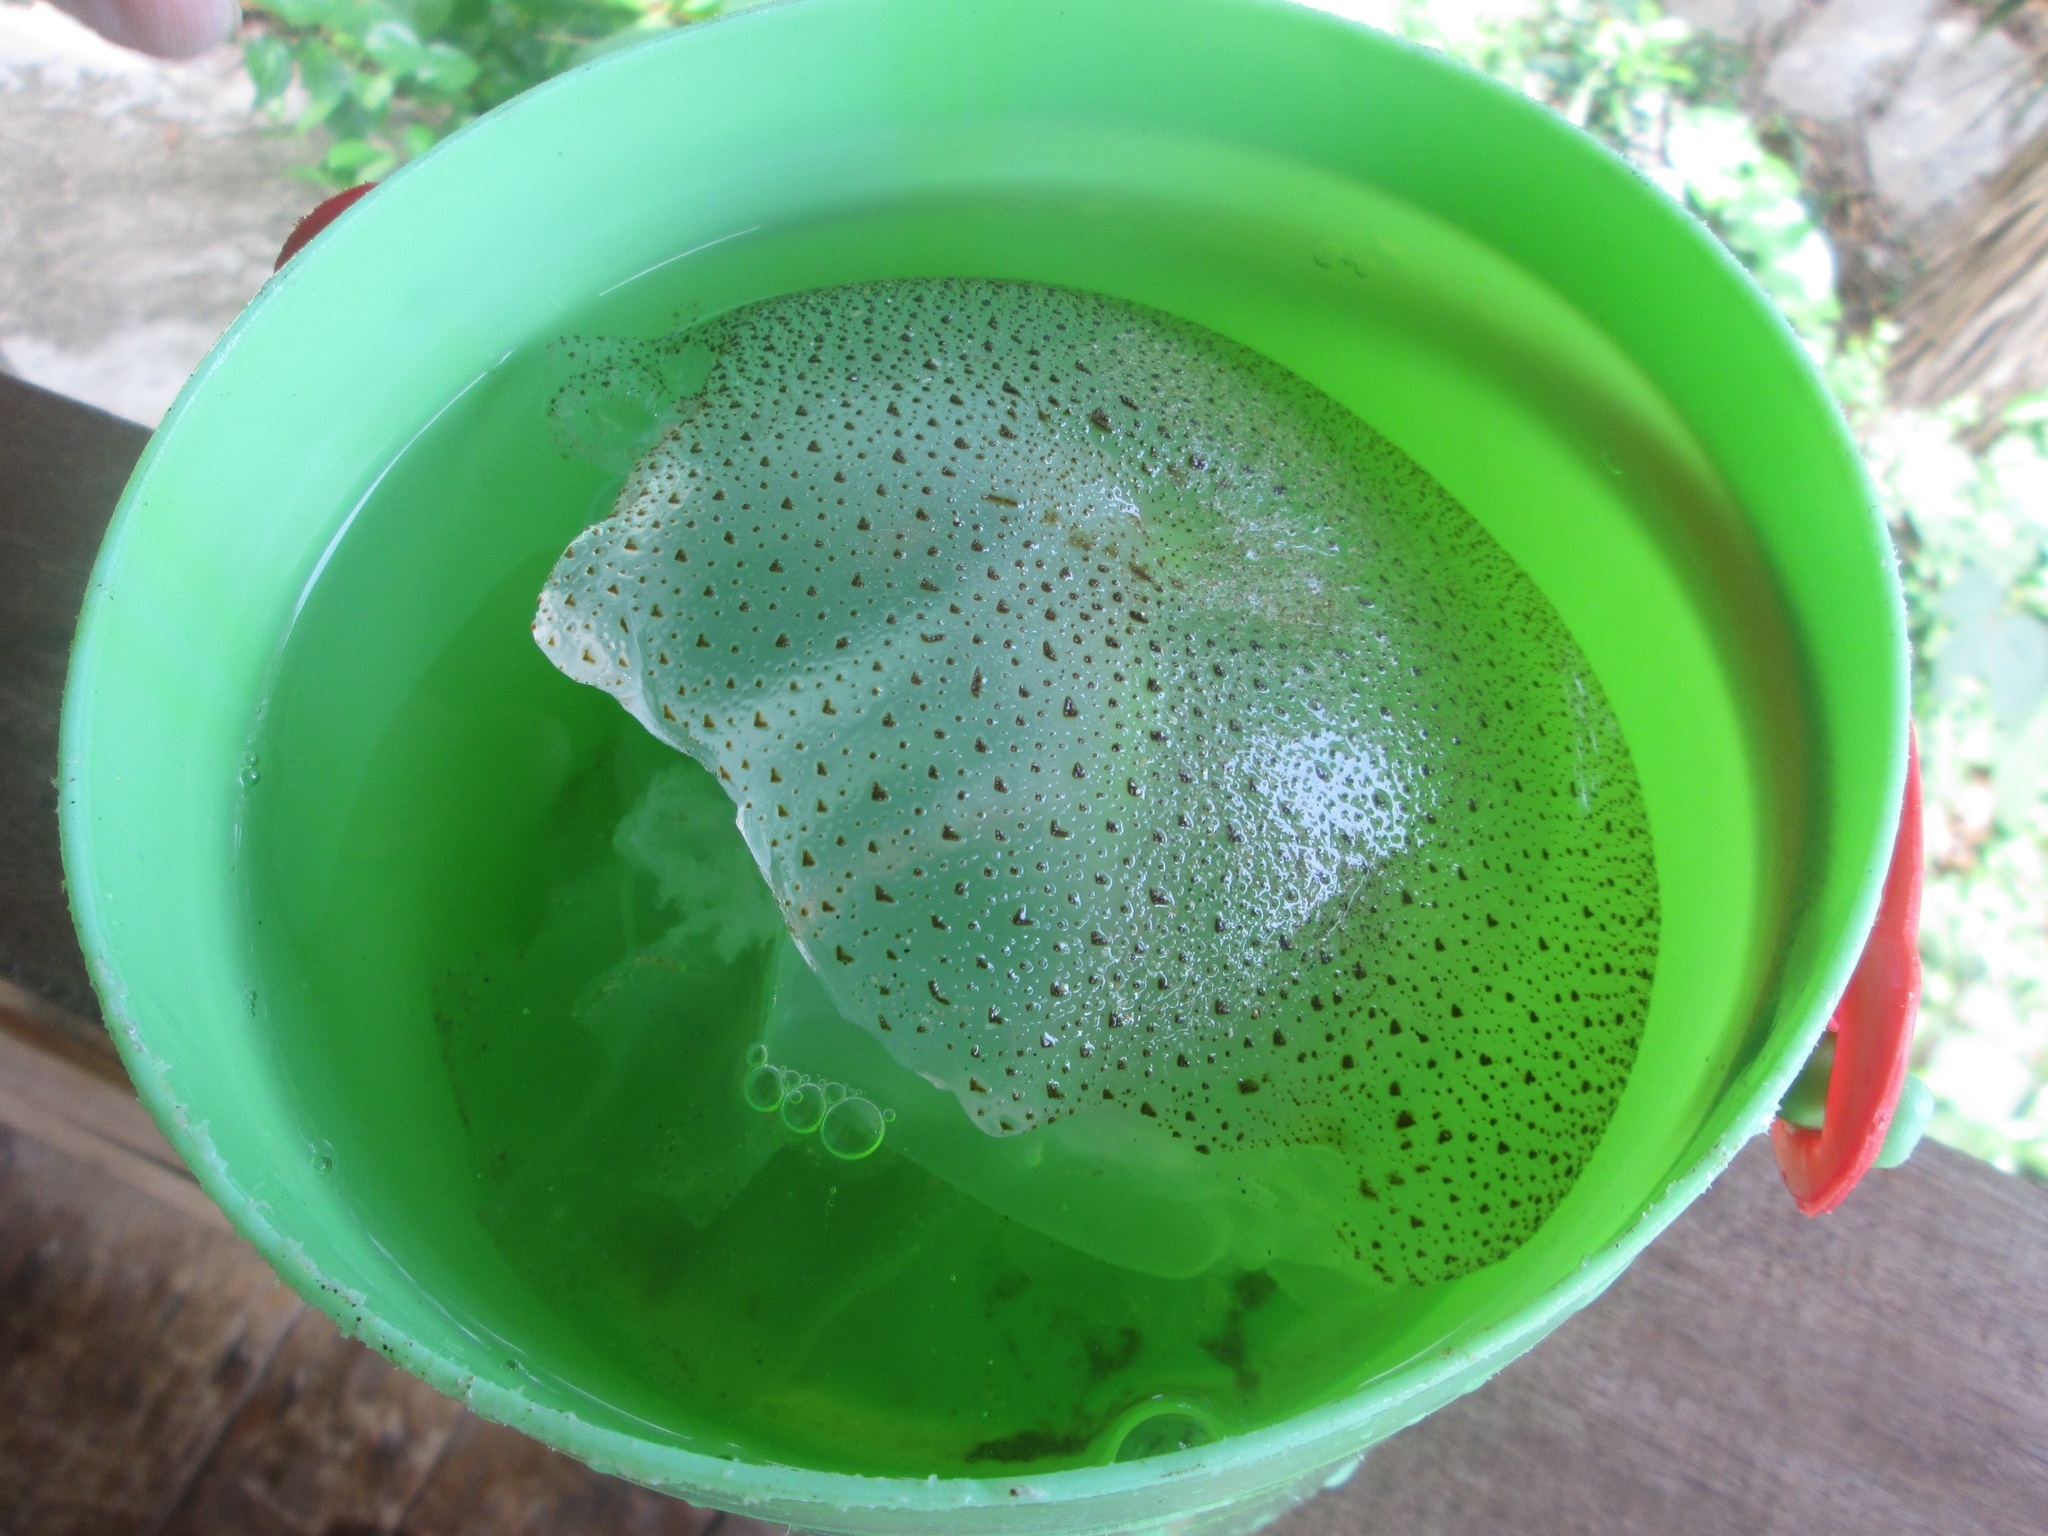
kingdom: Animalia
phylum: Cnidaria
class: Scyphozoa
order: Rhizostomeae
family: Rhizostomatidae
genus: Rhopilema
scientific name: Rhopilema hispidum
